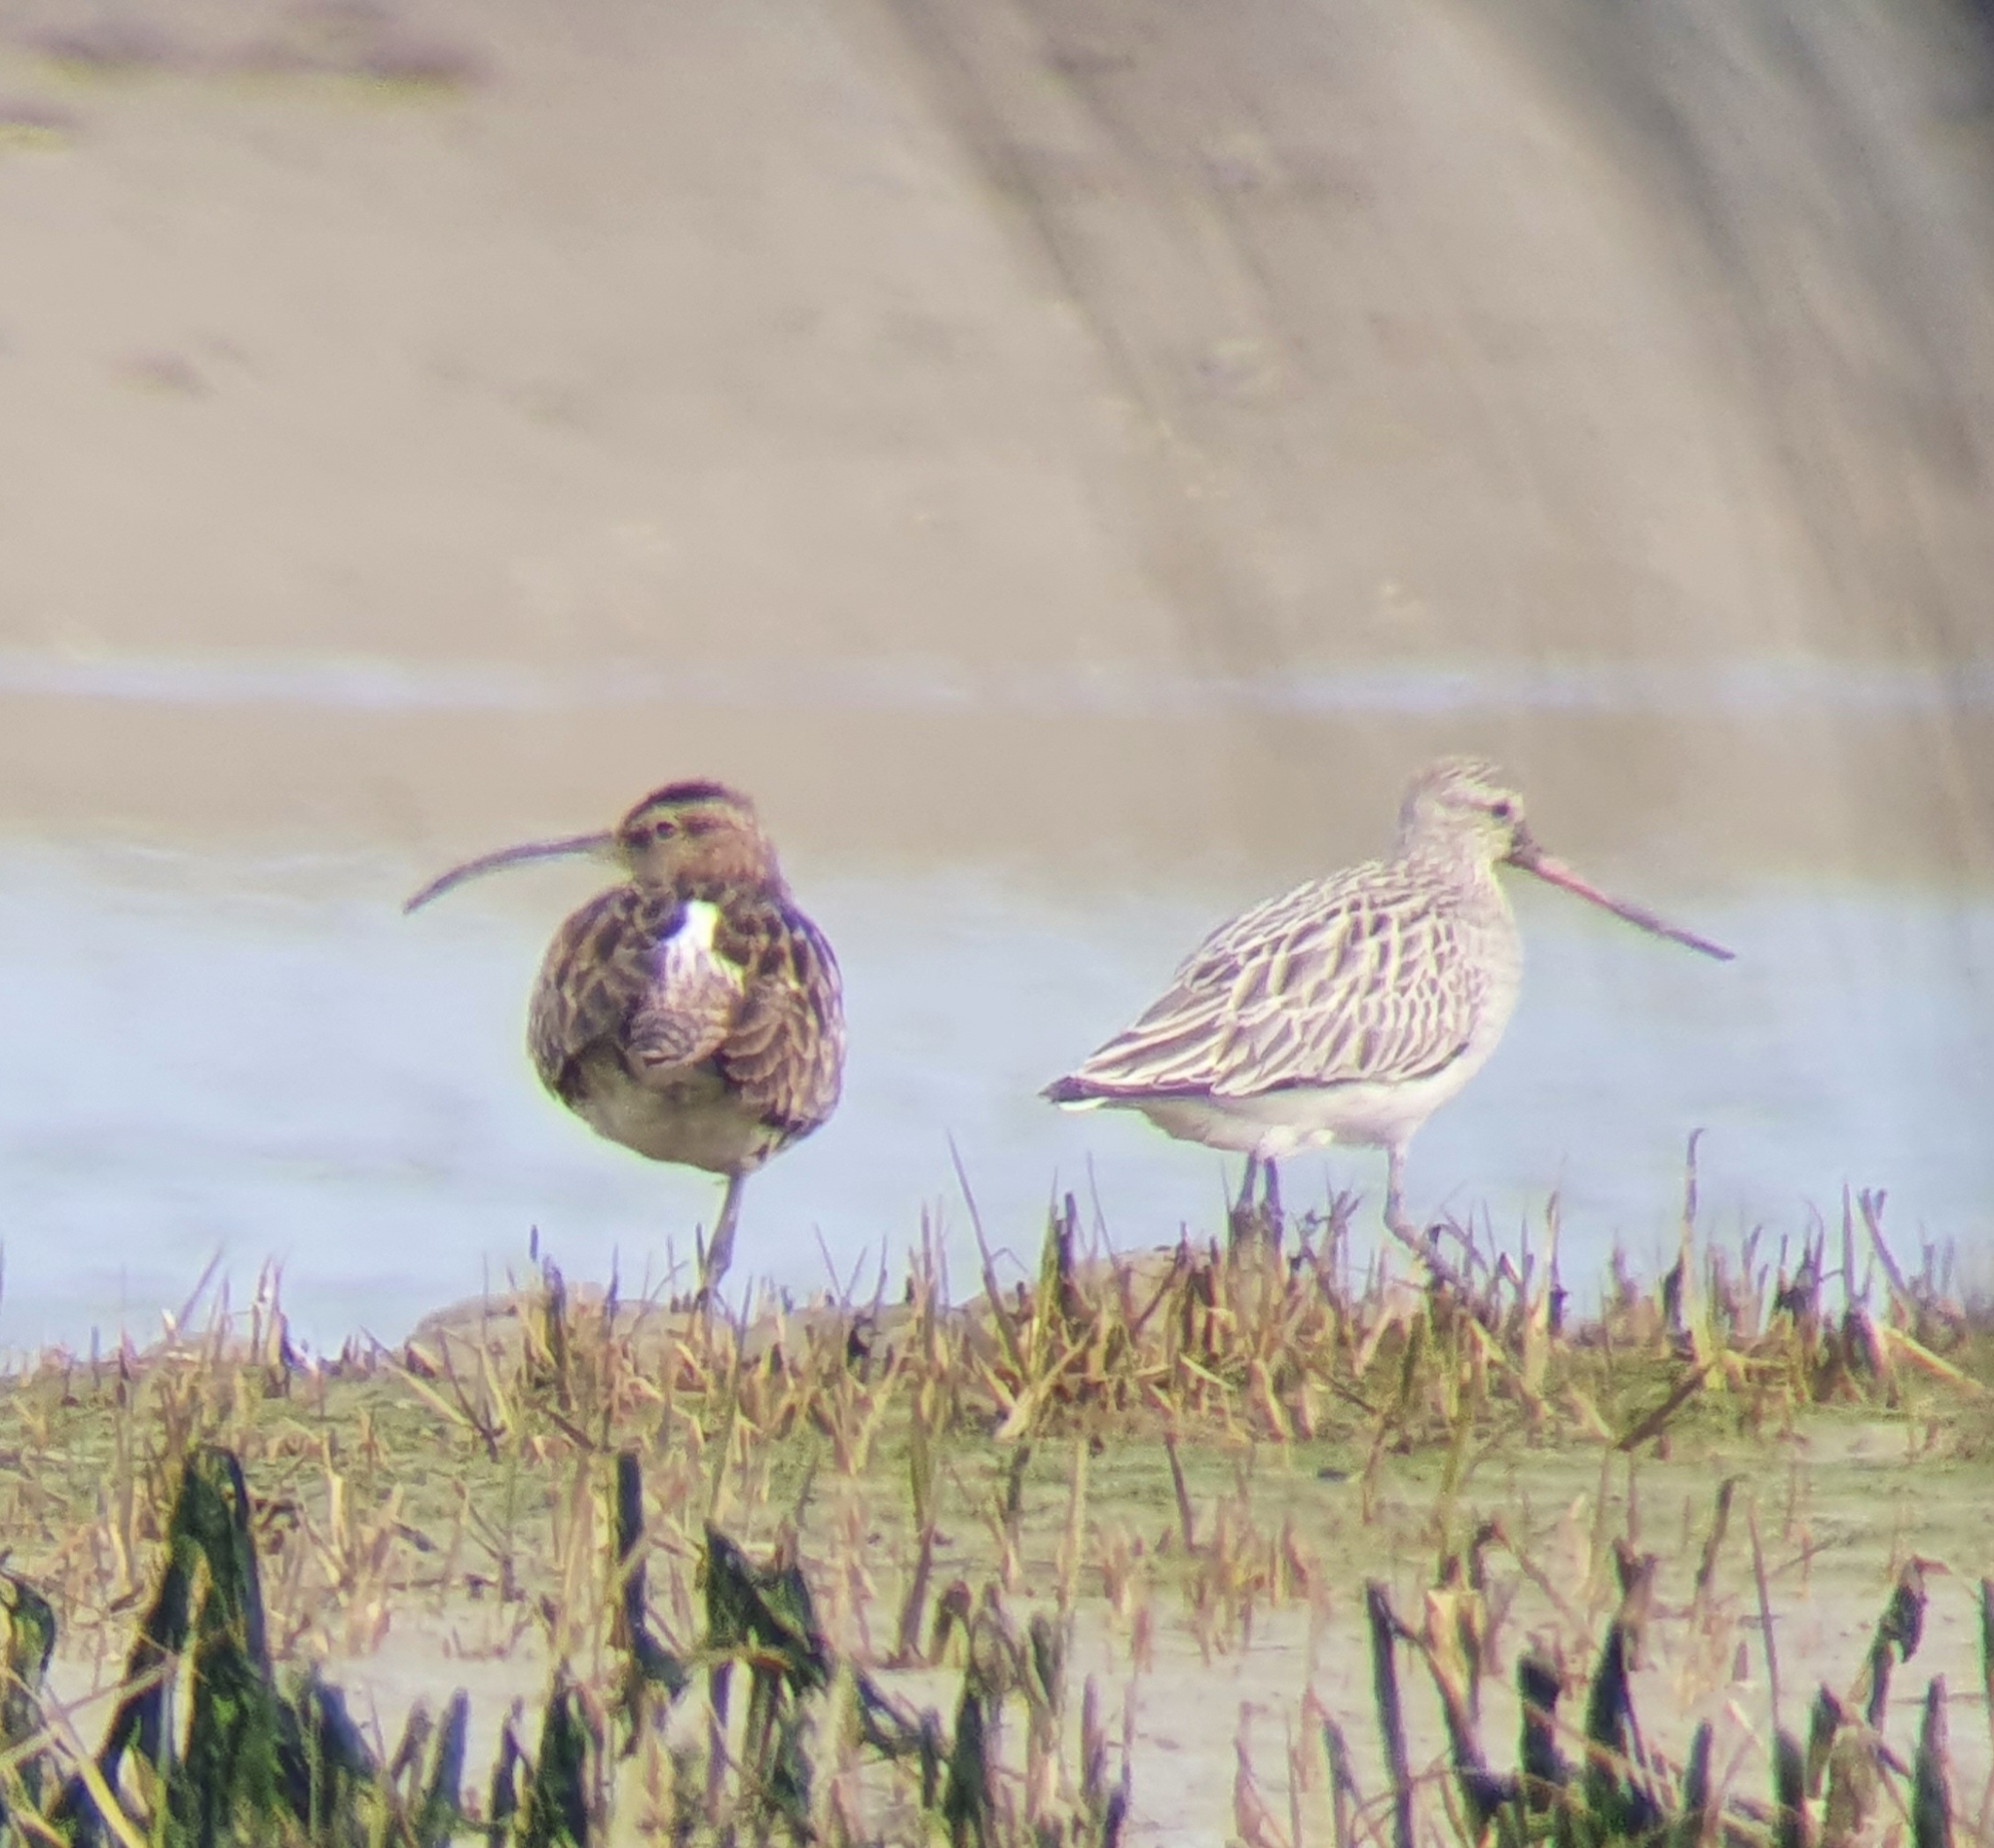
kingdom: Animalia
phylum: Chordata
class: Aves
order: Charadriiformes
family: Scolopacidae
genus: Limosa
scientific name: Limosa lapponica
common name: Bar-tailed godwit
